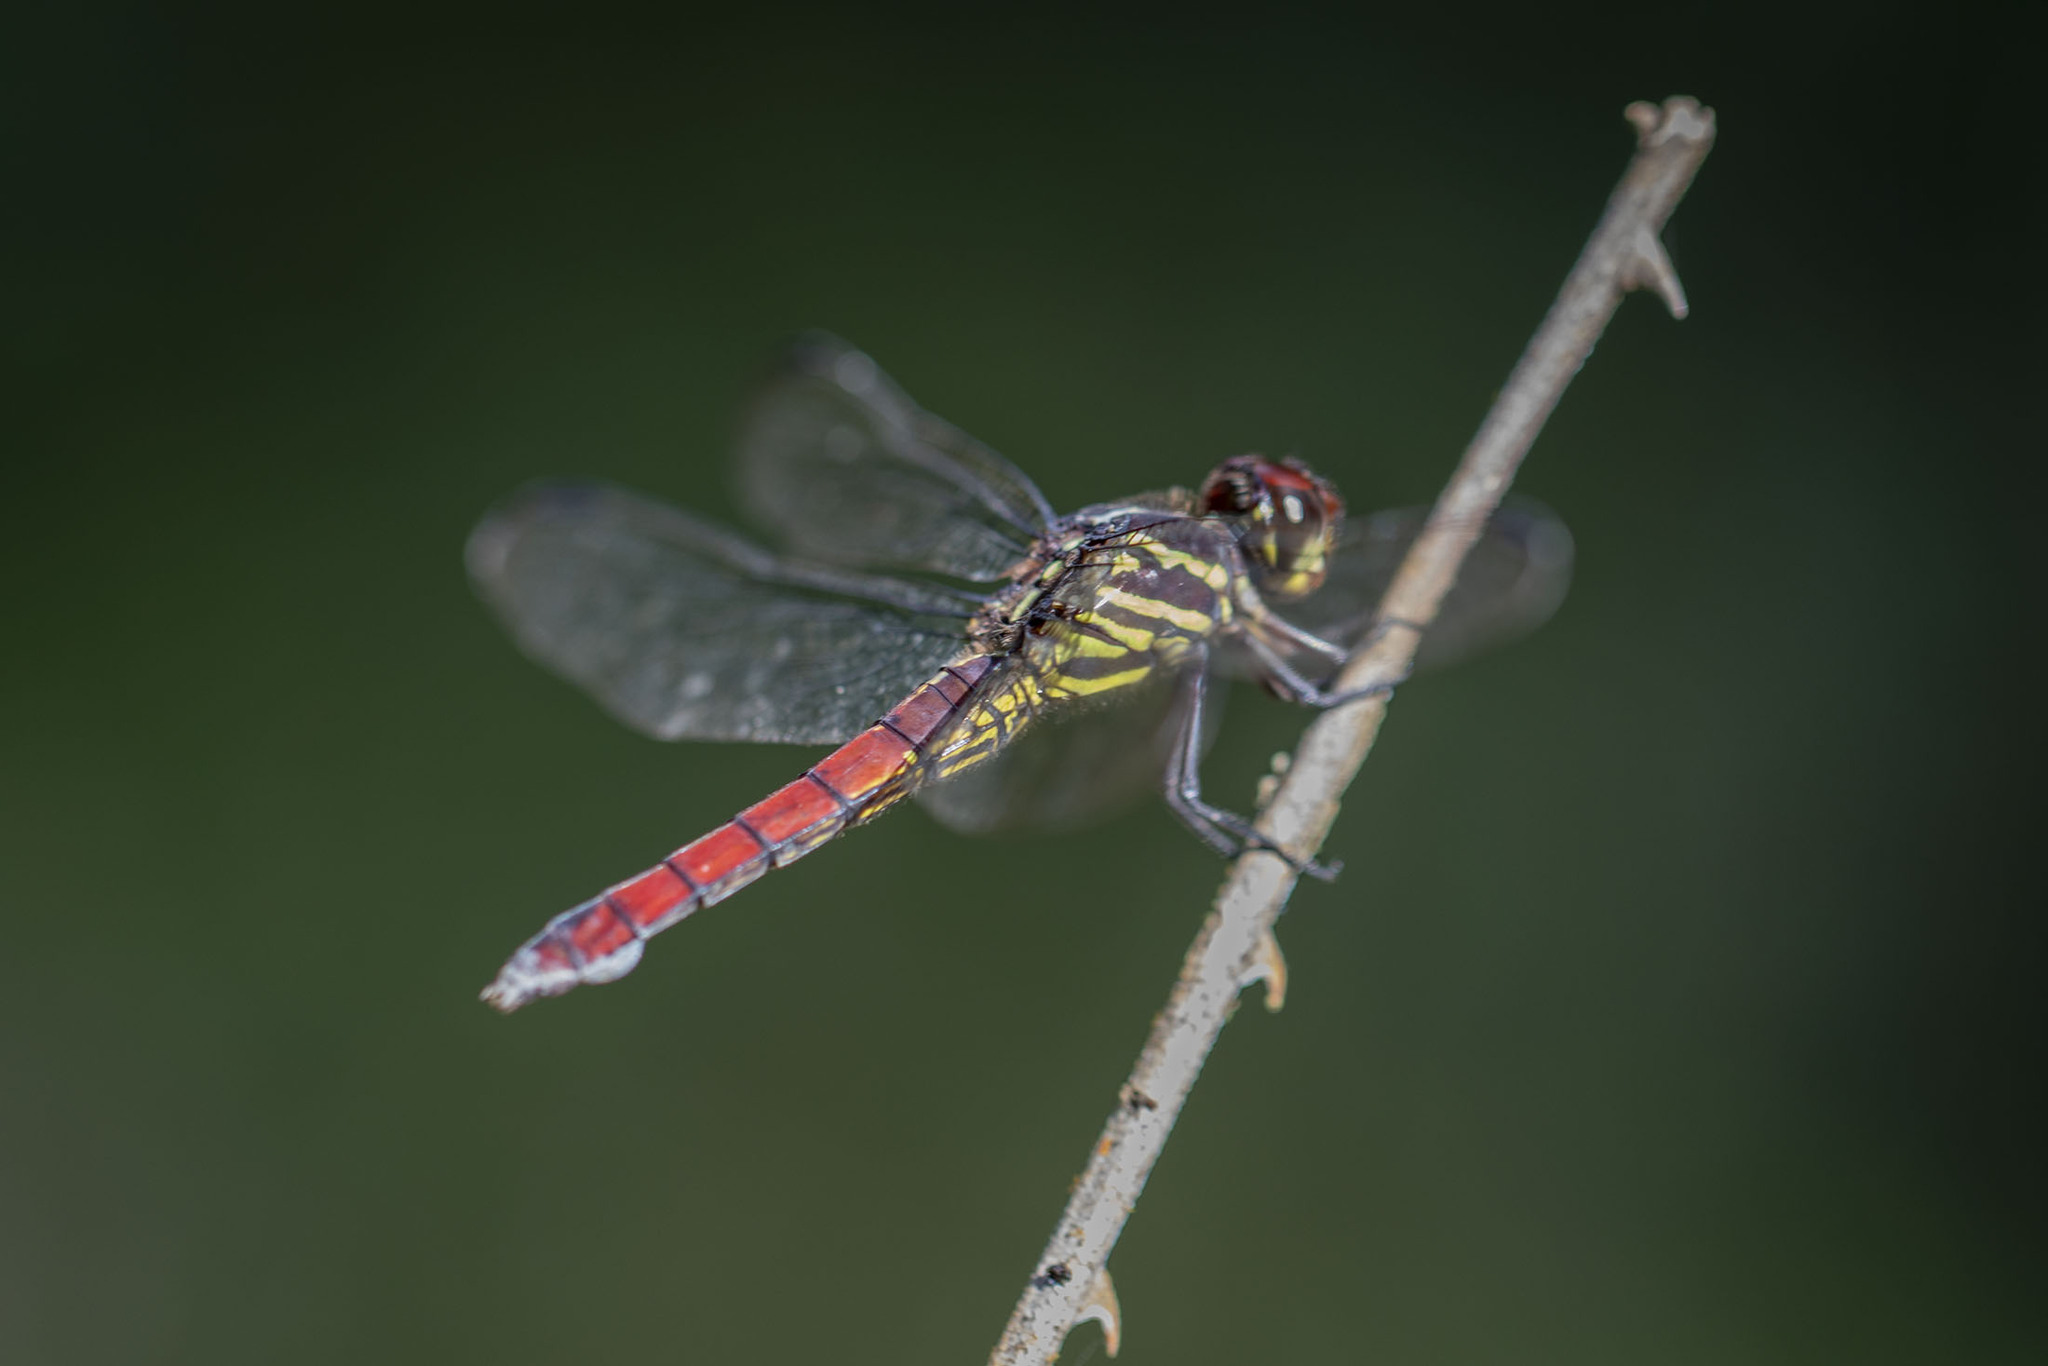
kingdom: Animalia
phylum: Arthropoda
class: Insecta
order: Odonata
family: Libellulidae
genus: Orthemis
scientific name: Orthemis biolleyi
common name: Yellow-lined skimmer
